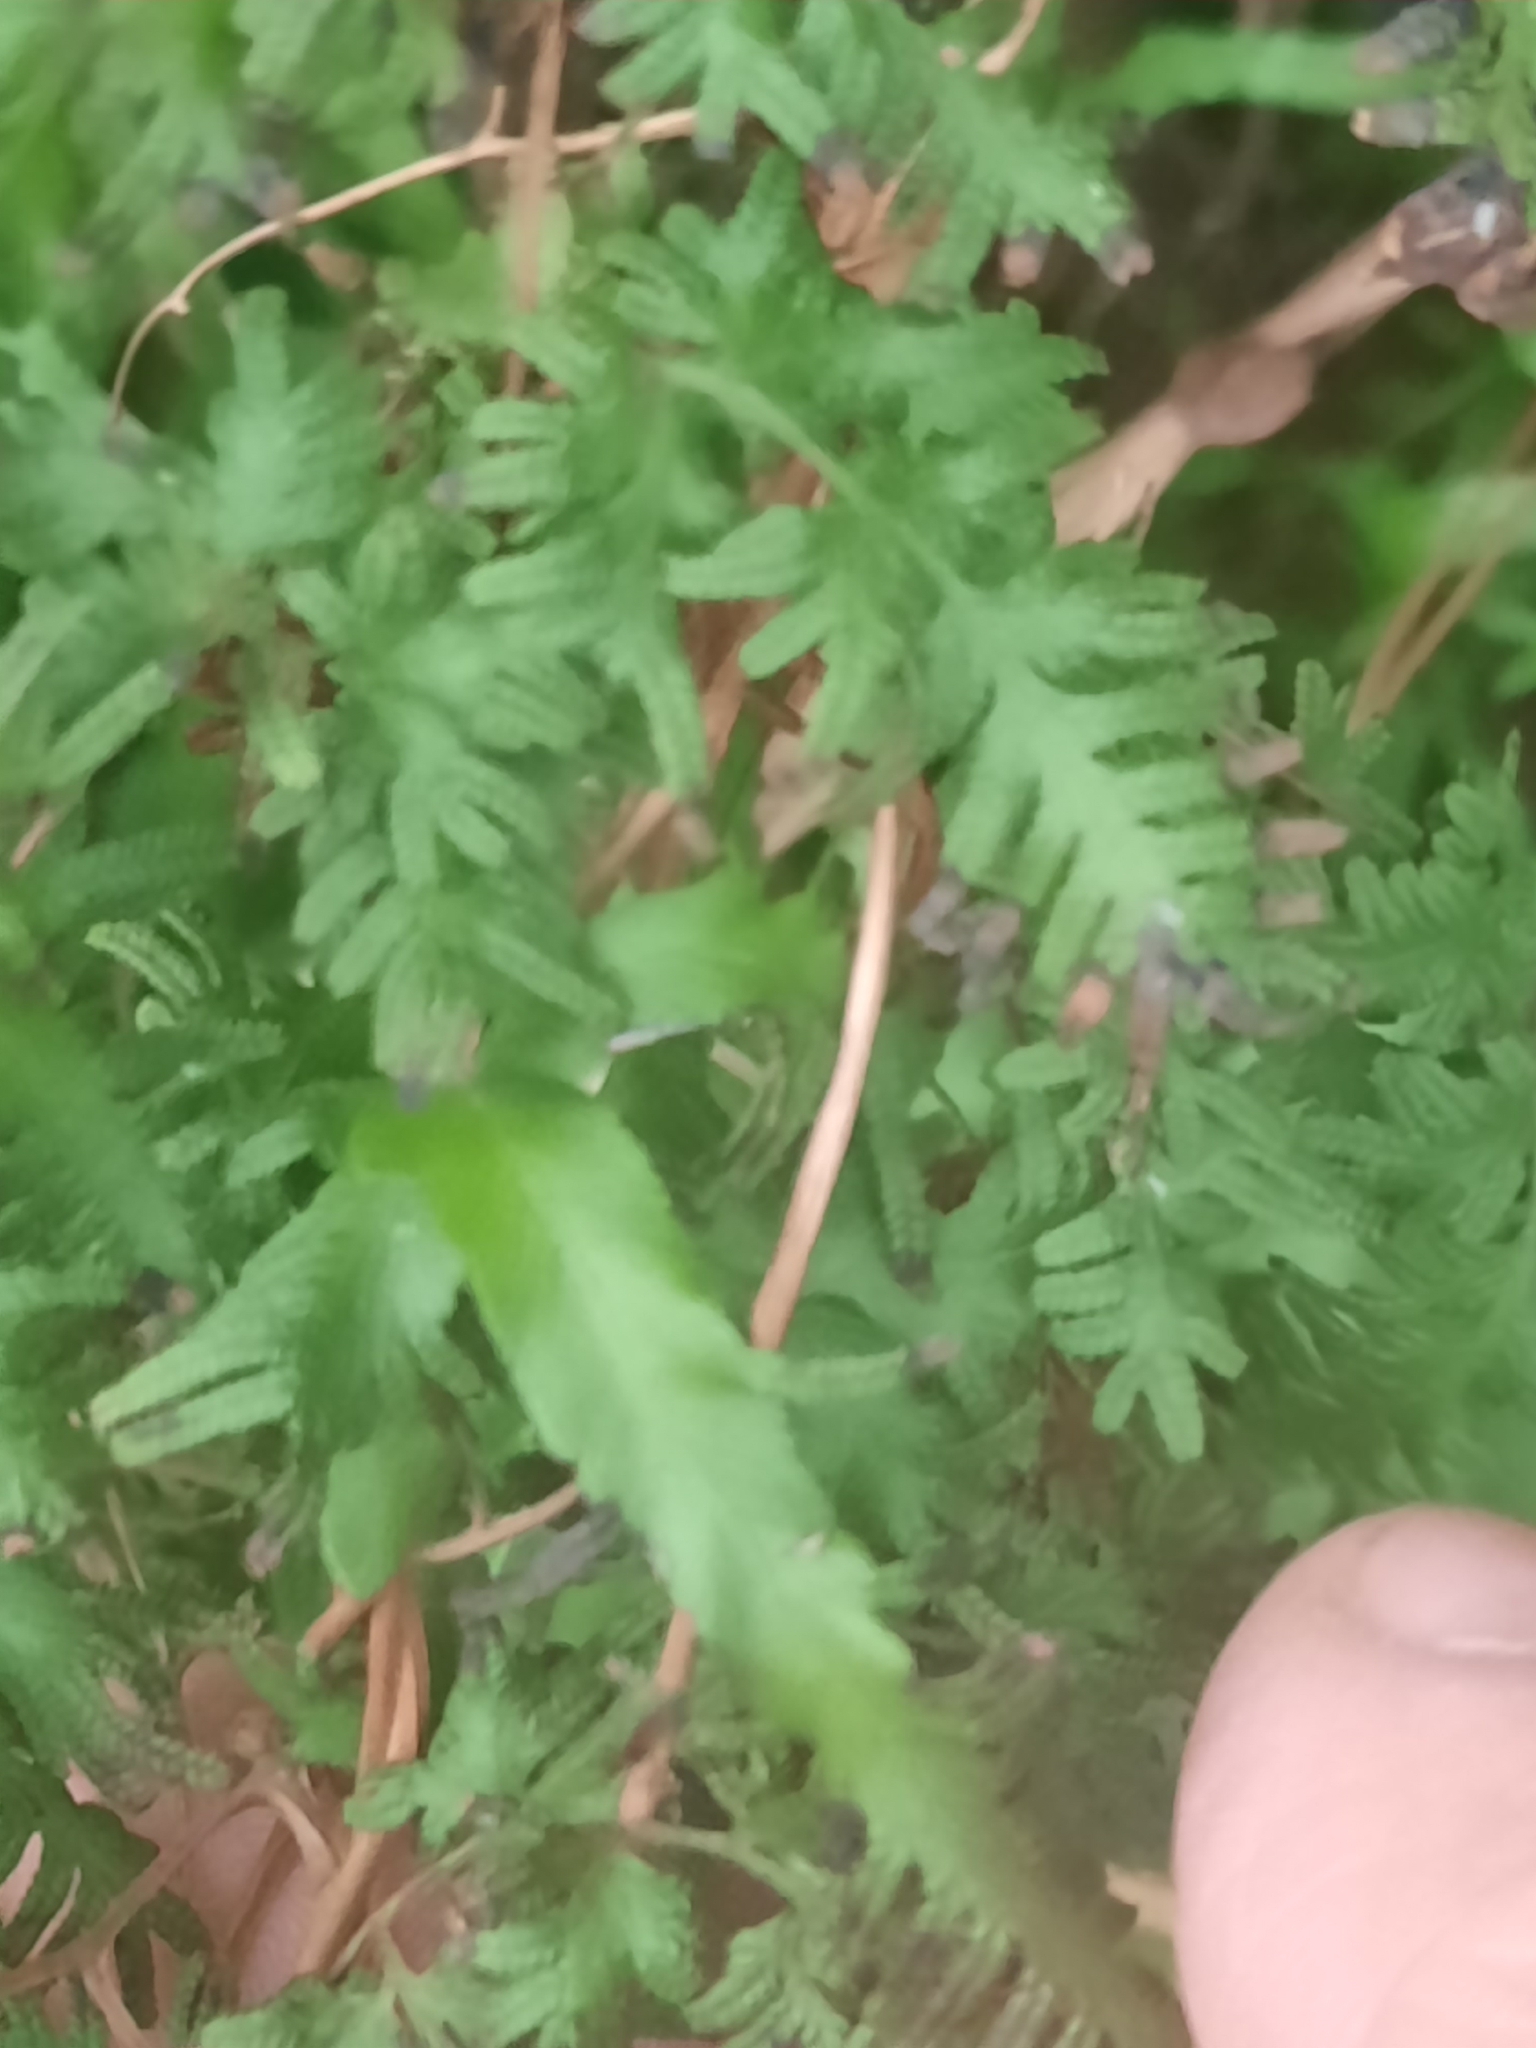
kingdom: Plantae
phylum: Tracheophyta
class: Polypodiopsida
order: Schizaeales
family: Lygodiaceae
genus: Lygodium
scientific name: Lygodium japonicum
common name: Japanese climbing fern
